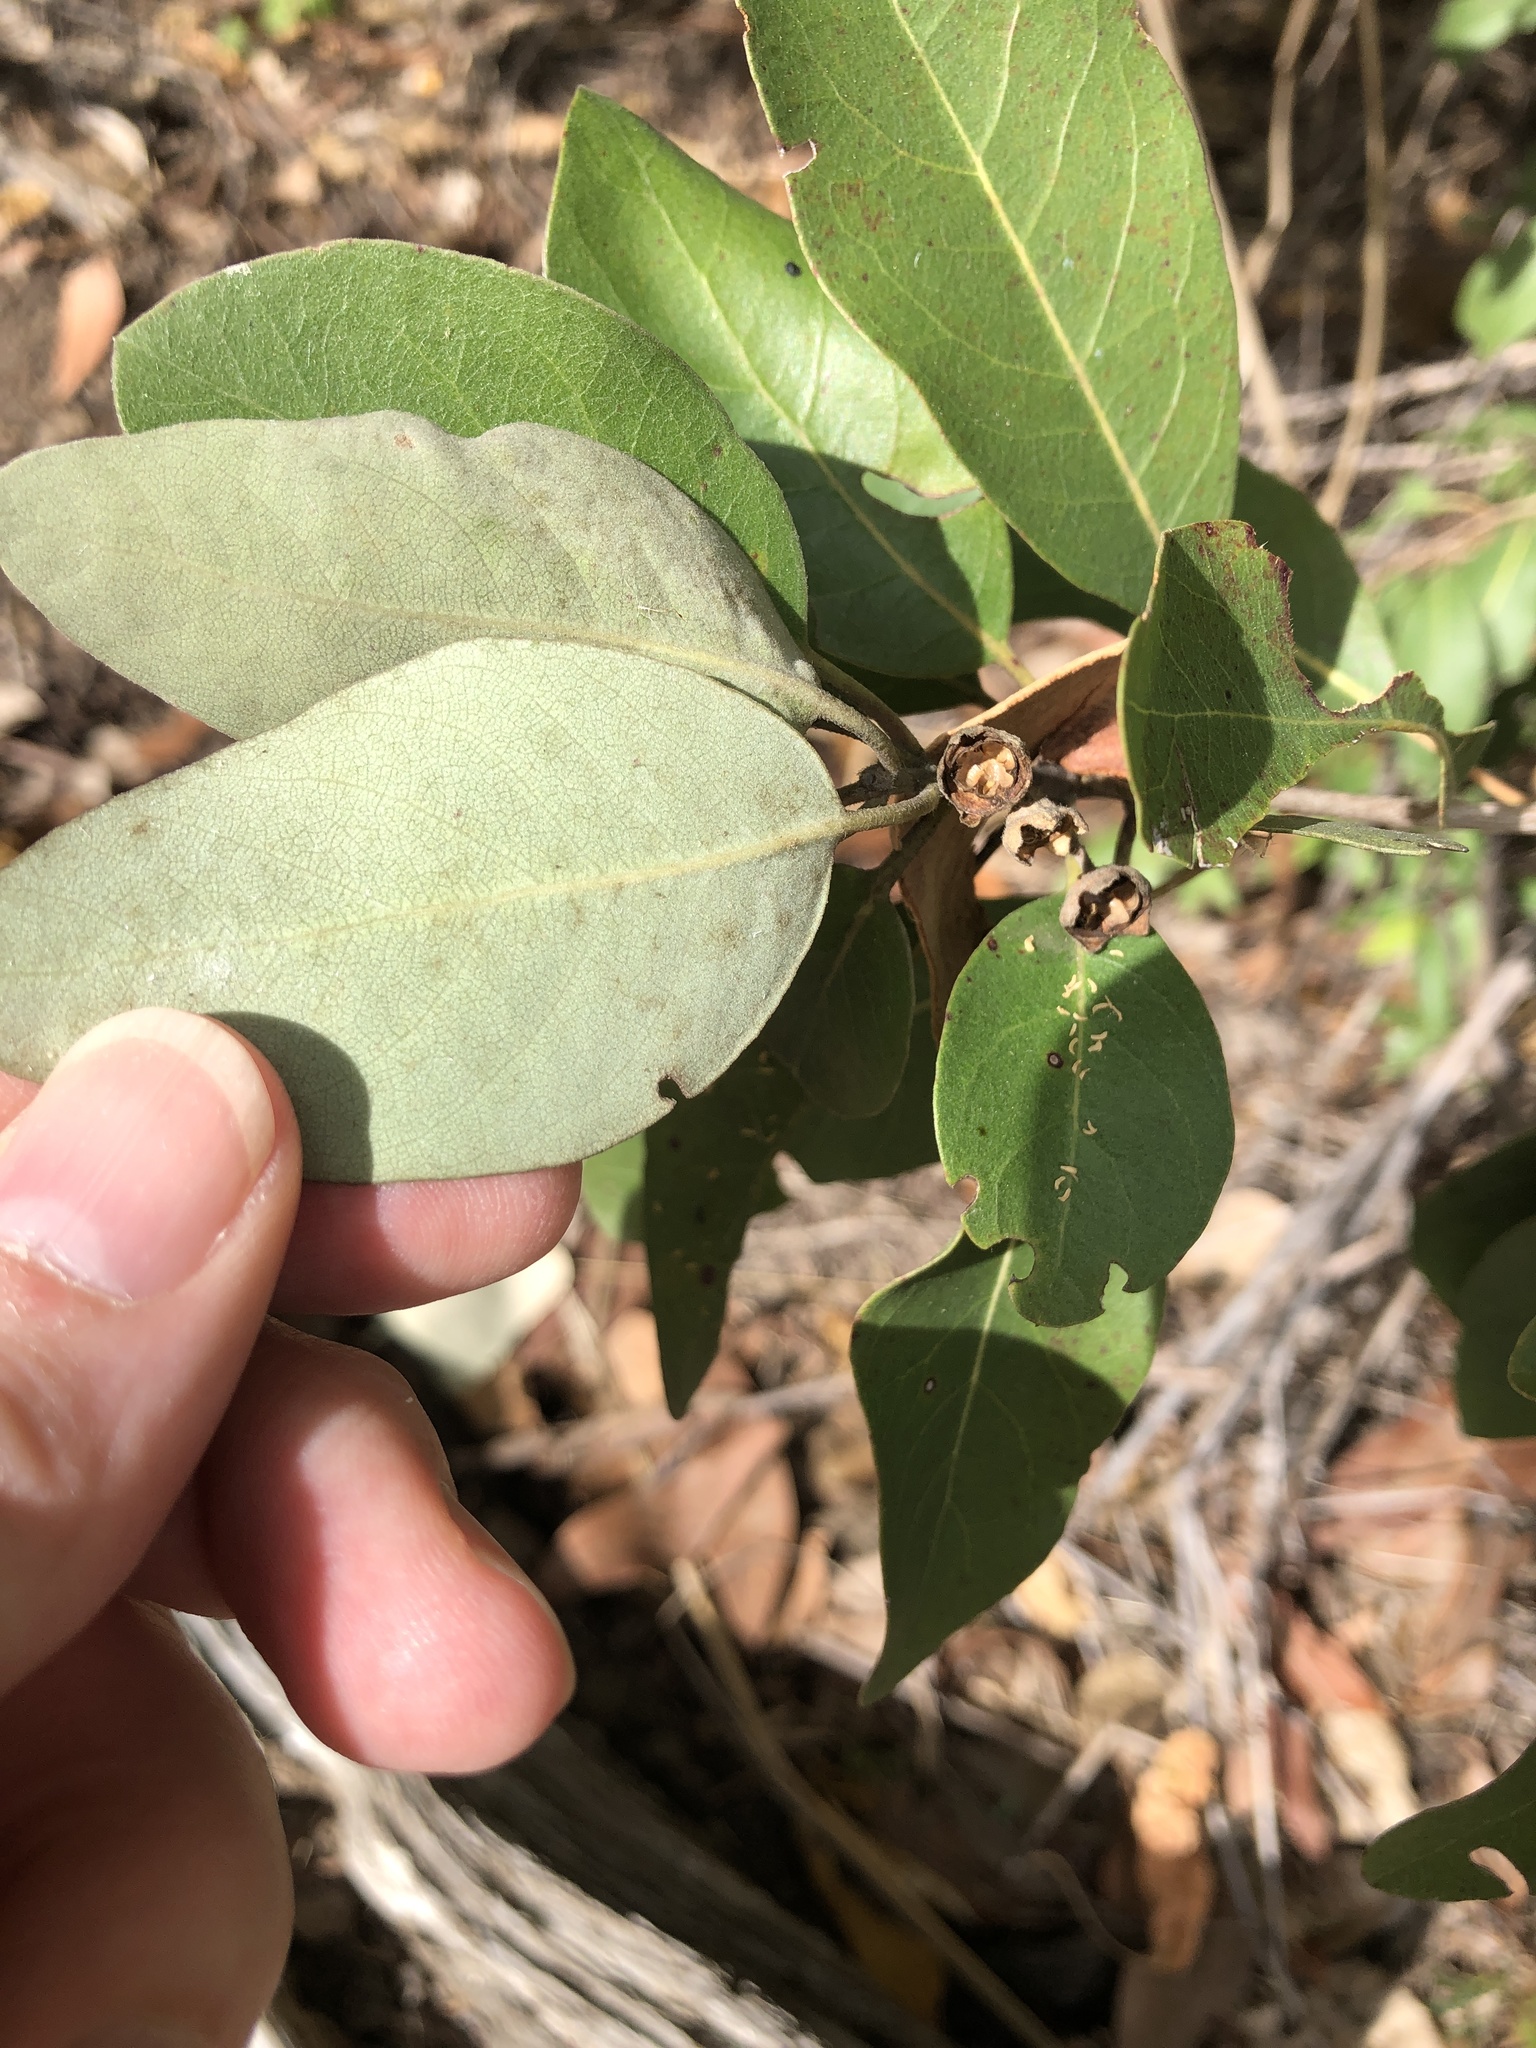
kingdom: Plantae
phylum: Tracheophyta
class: Magnoliopsida
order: Myrtales
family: Myrtaceae
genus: Lophostemon
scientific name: Lophostemon grandiflorus
